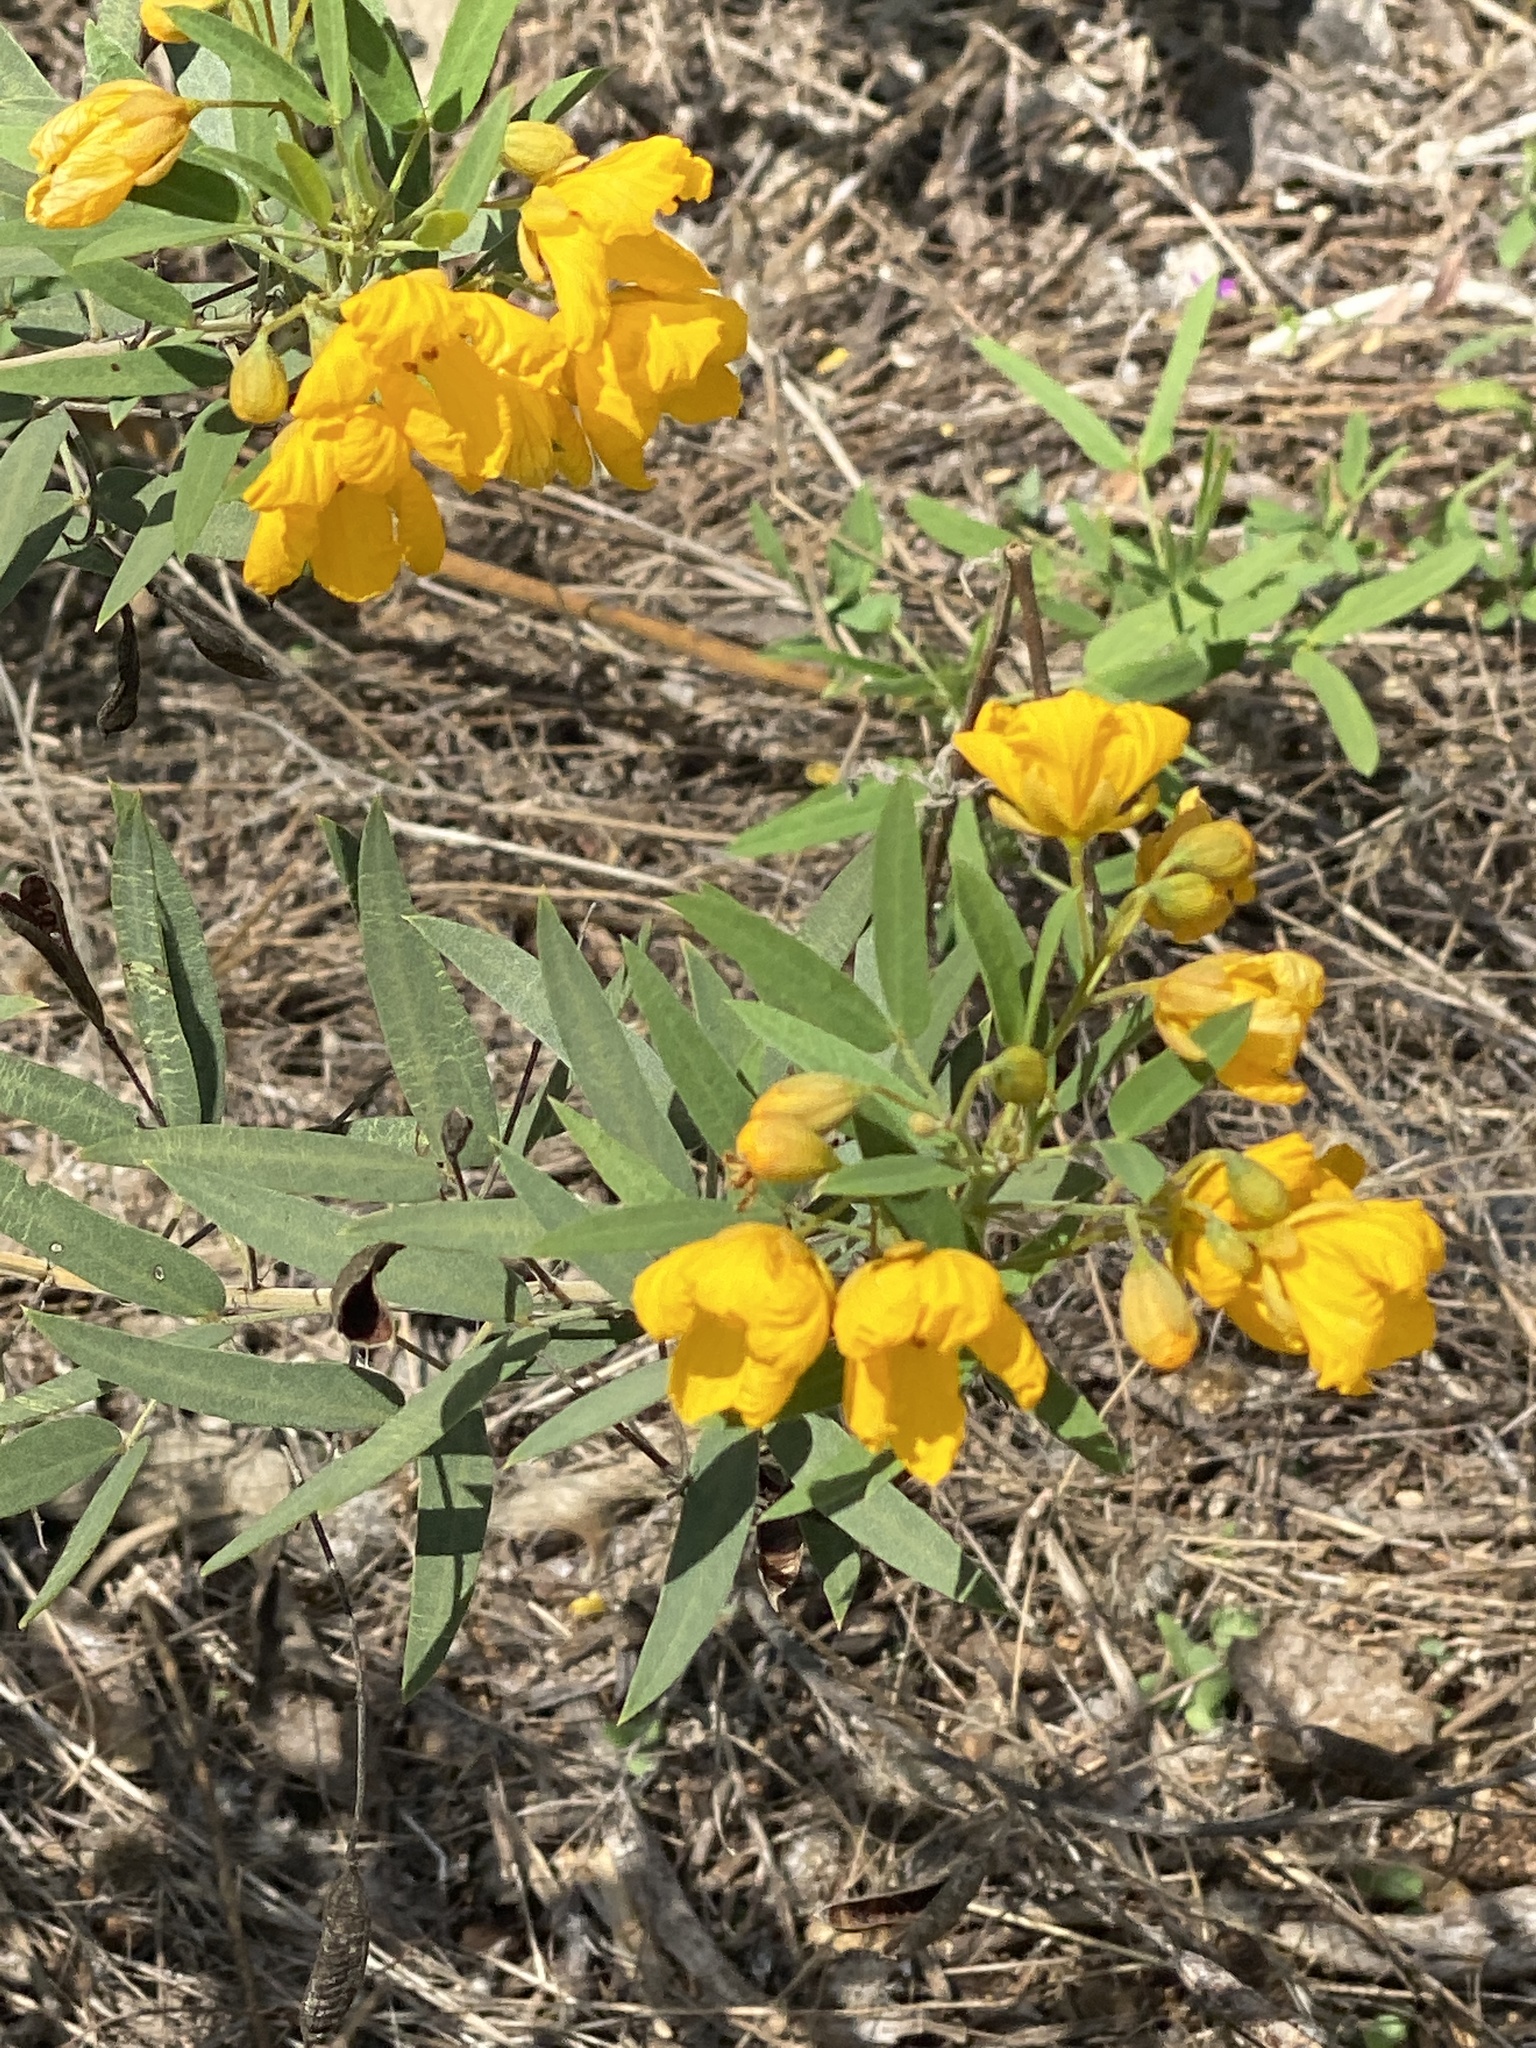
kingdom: Plantae
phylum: Tracheophyta
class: Magnoliopsida
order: Fabales
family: Fabaceae
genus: Senna
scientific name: Senna roemeriana
